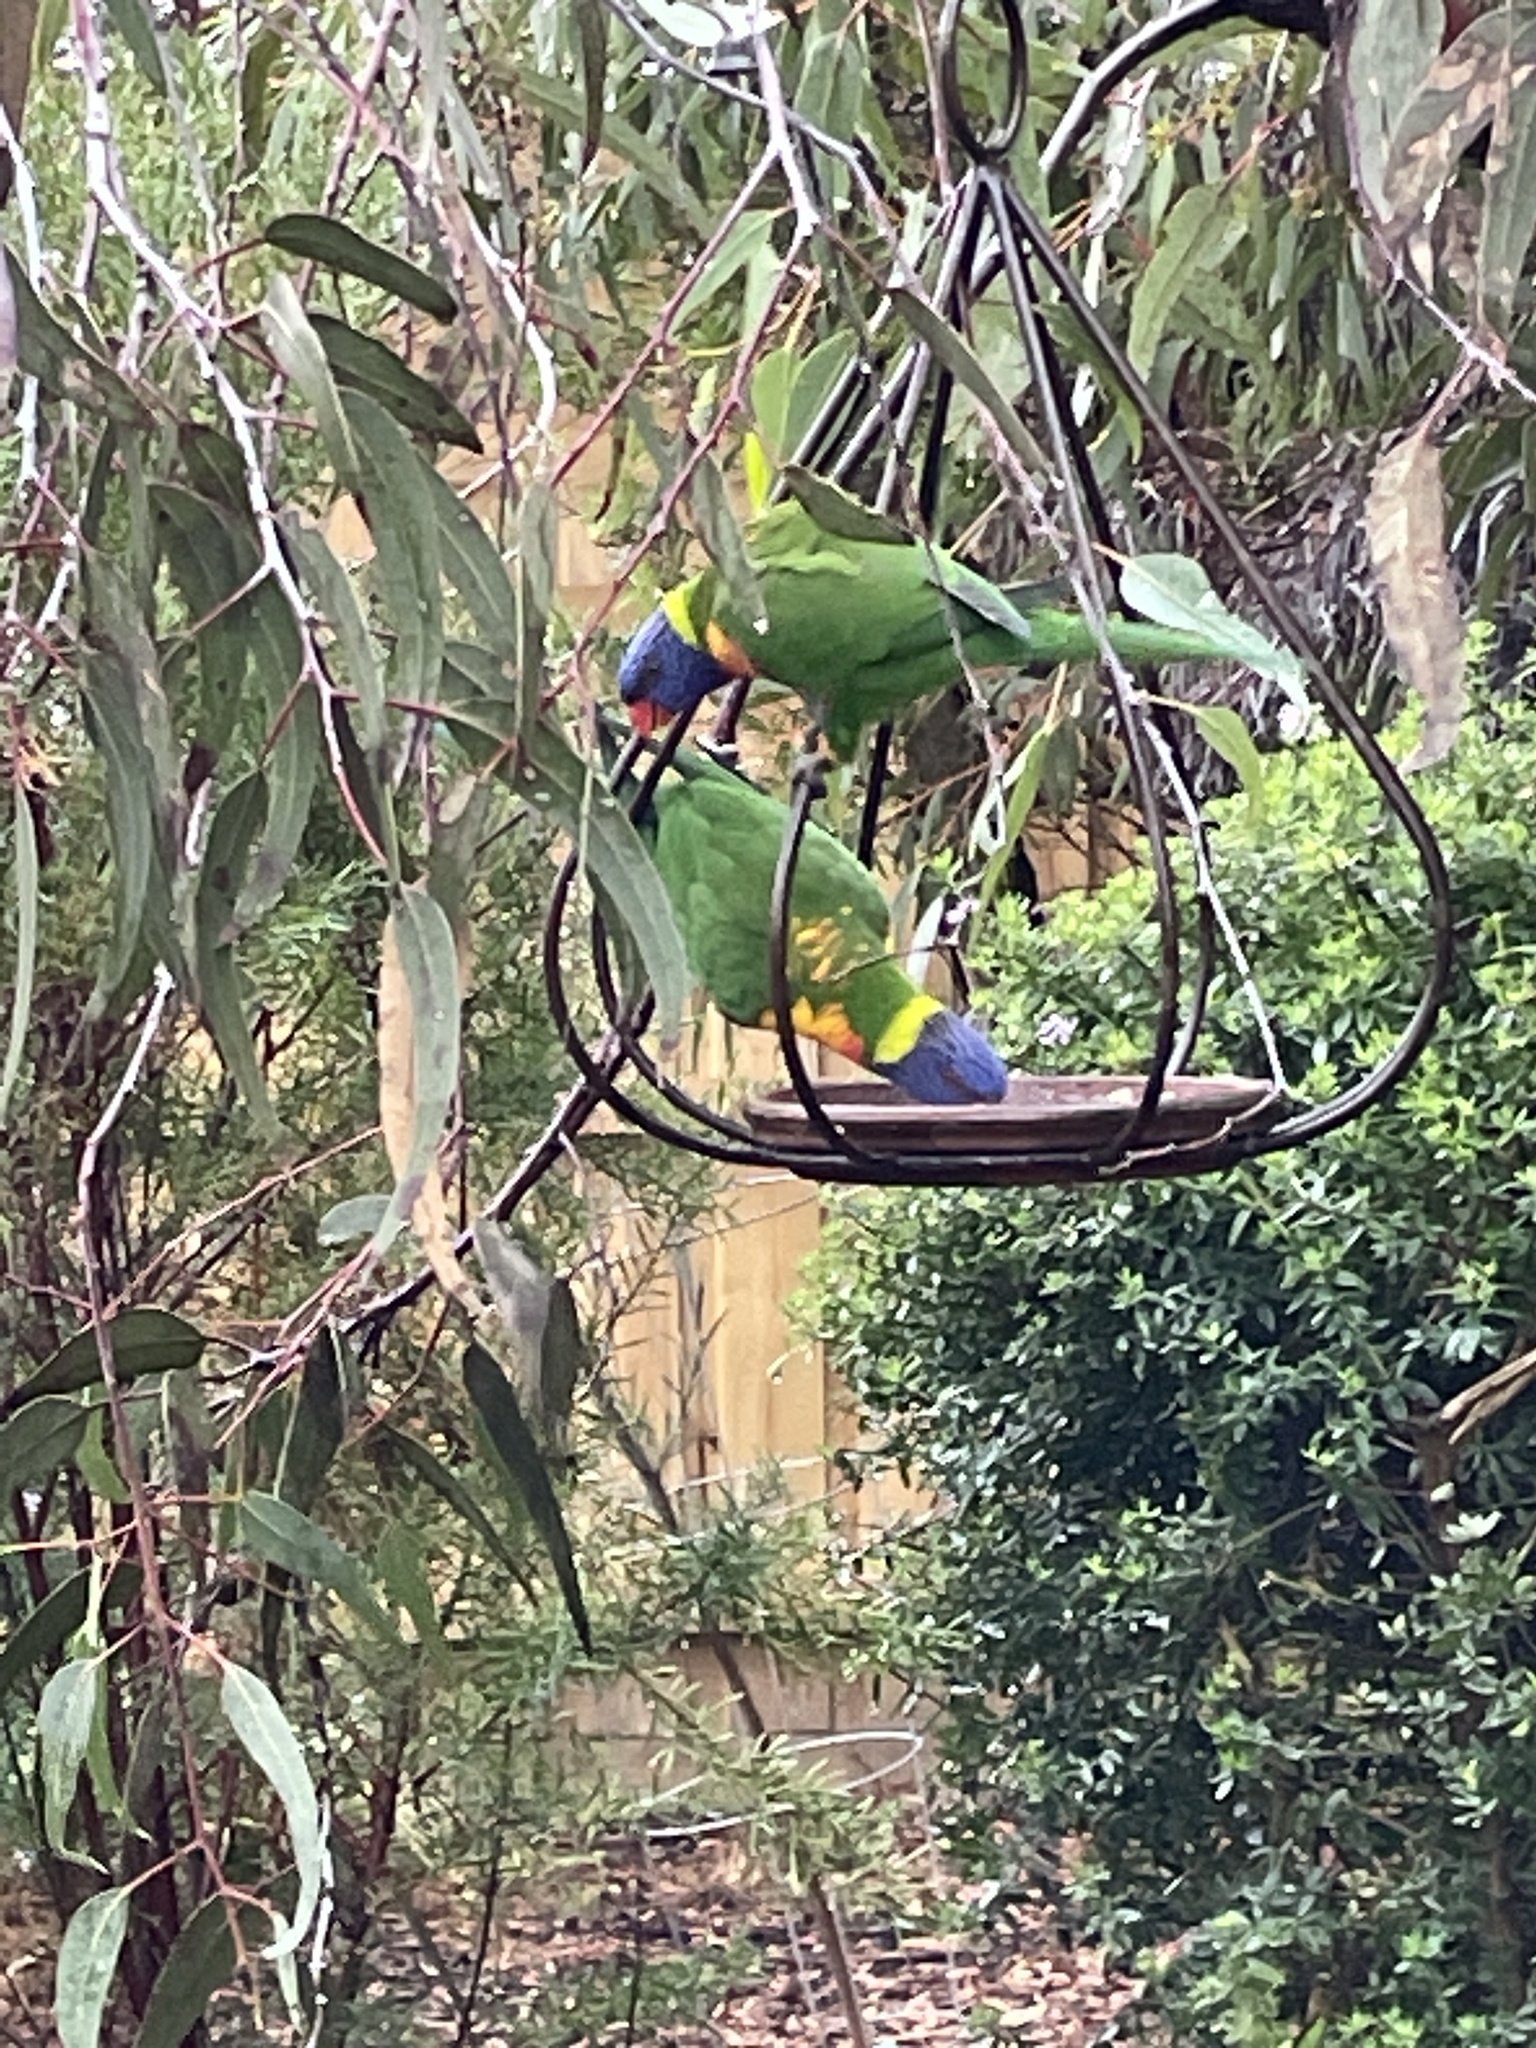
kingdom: Animalia
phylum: Chordata
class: Aves
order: Psittaciformes
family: Psittacidae
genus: Trichoglossus
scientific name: Trichoglossus haematodus
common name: Coconut lorikeet
